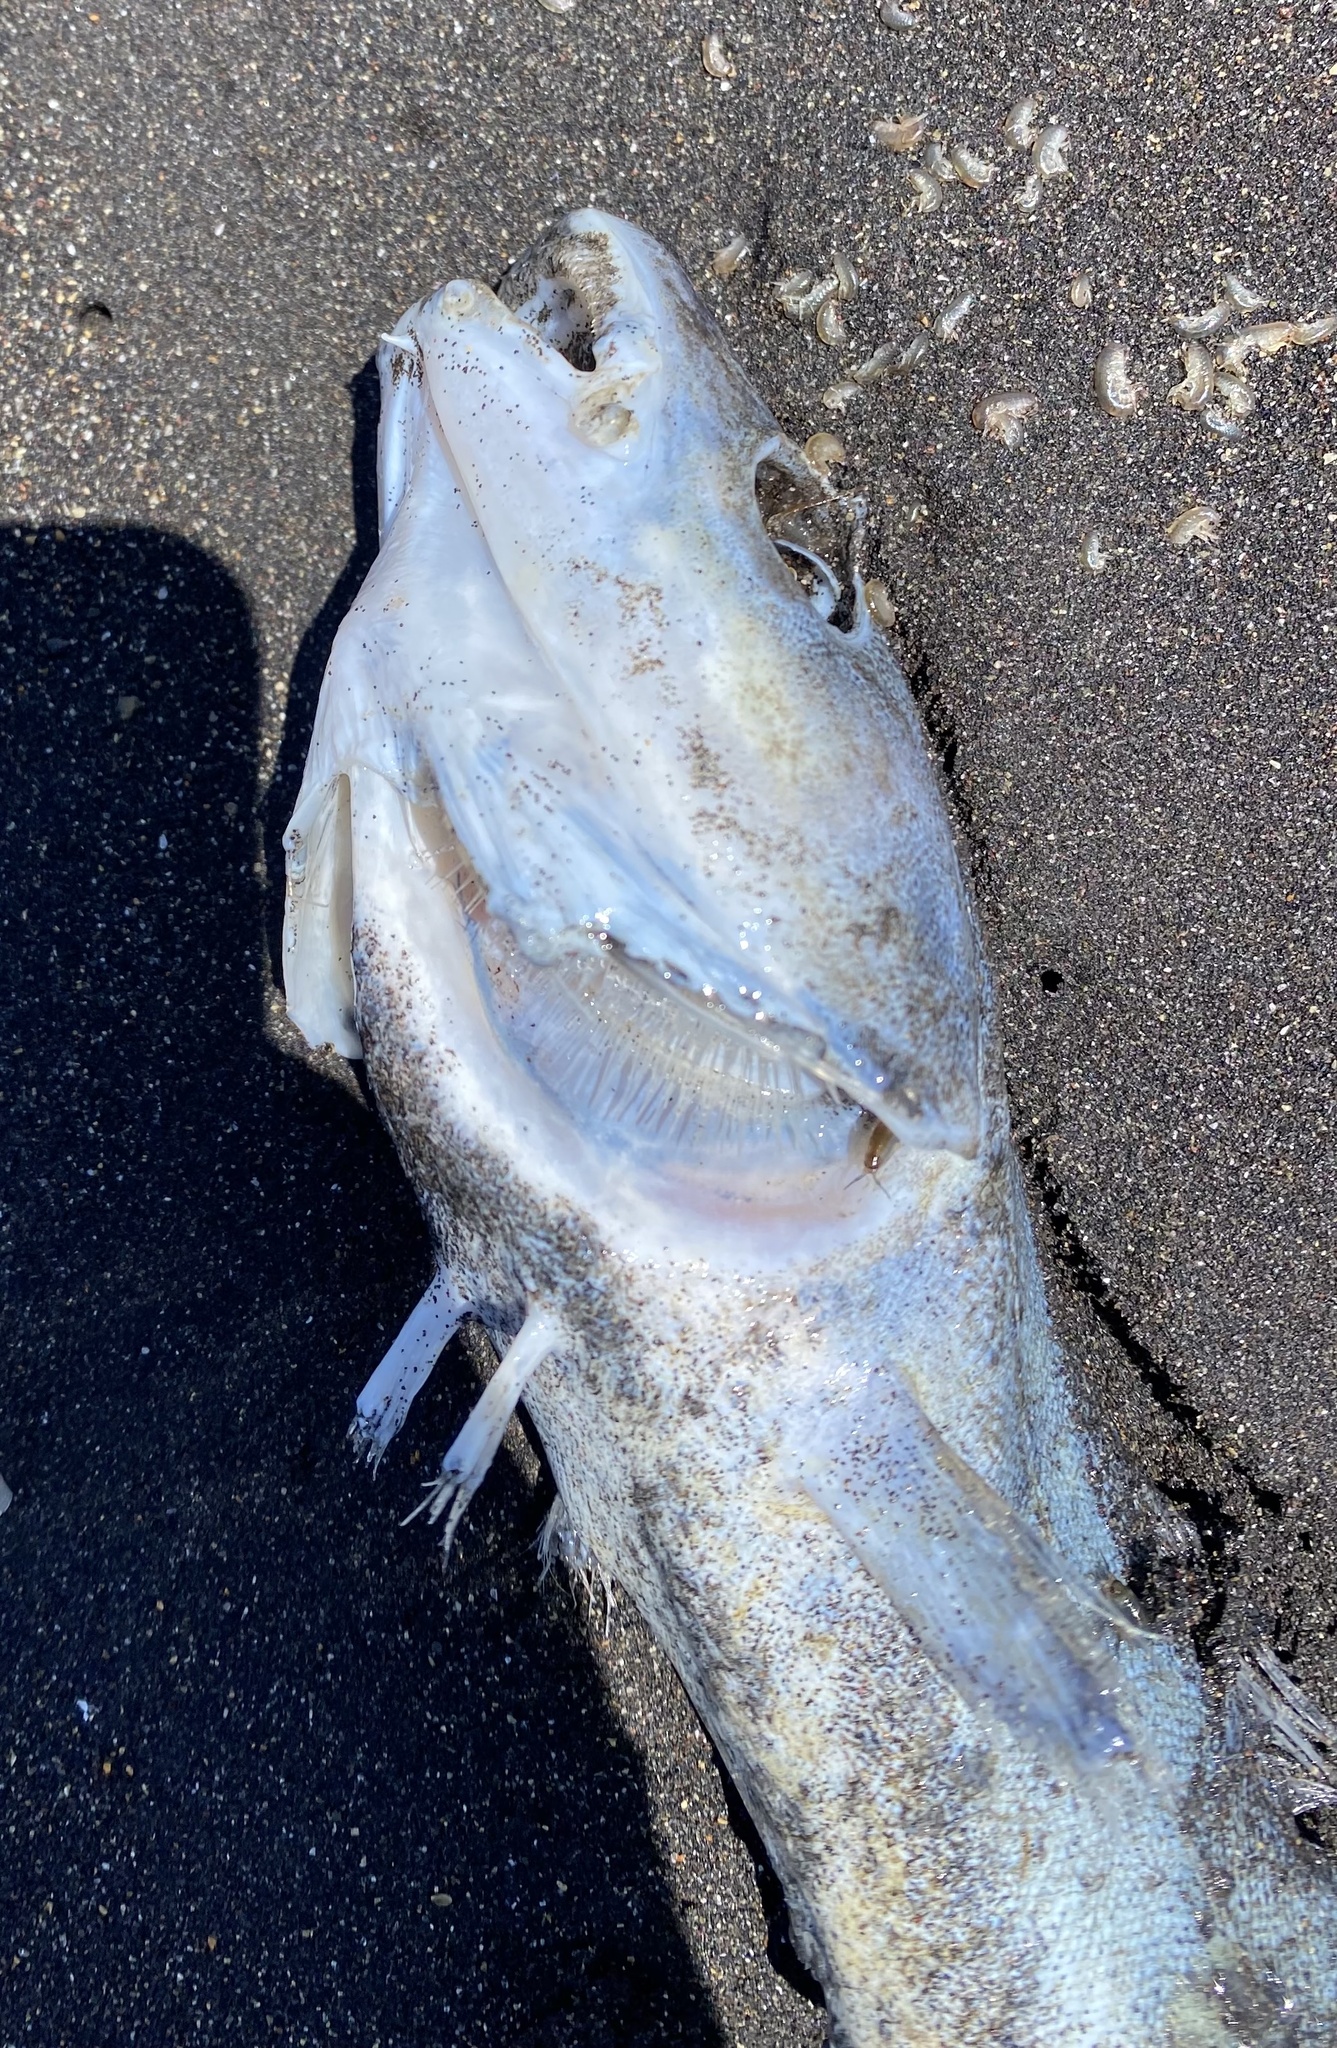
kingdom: Animalia
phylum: Chordata
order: Gadiformes
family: Gadidae
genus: Eleginus
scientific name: Eleginus gracilis
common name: Saffron cod
